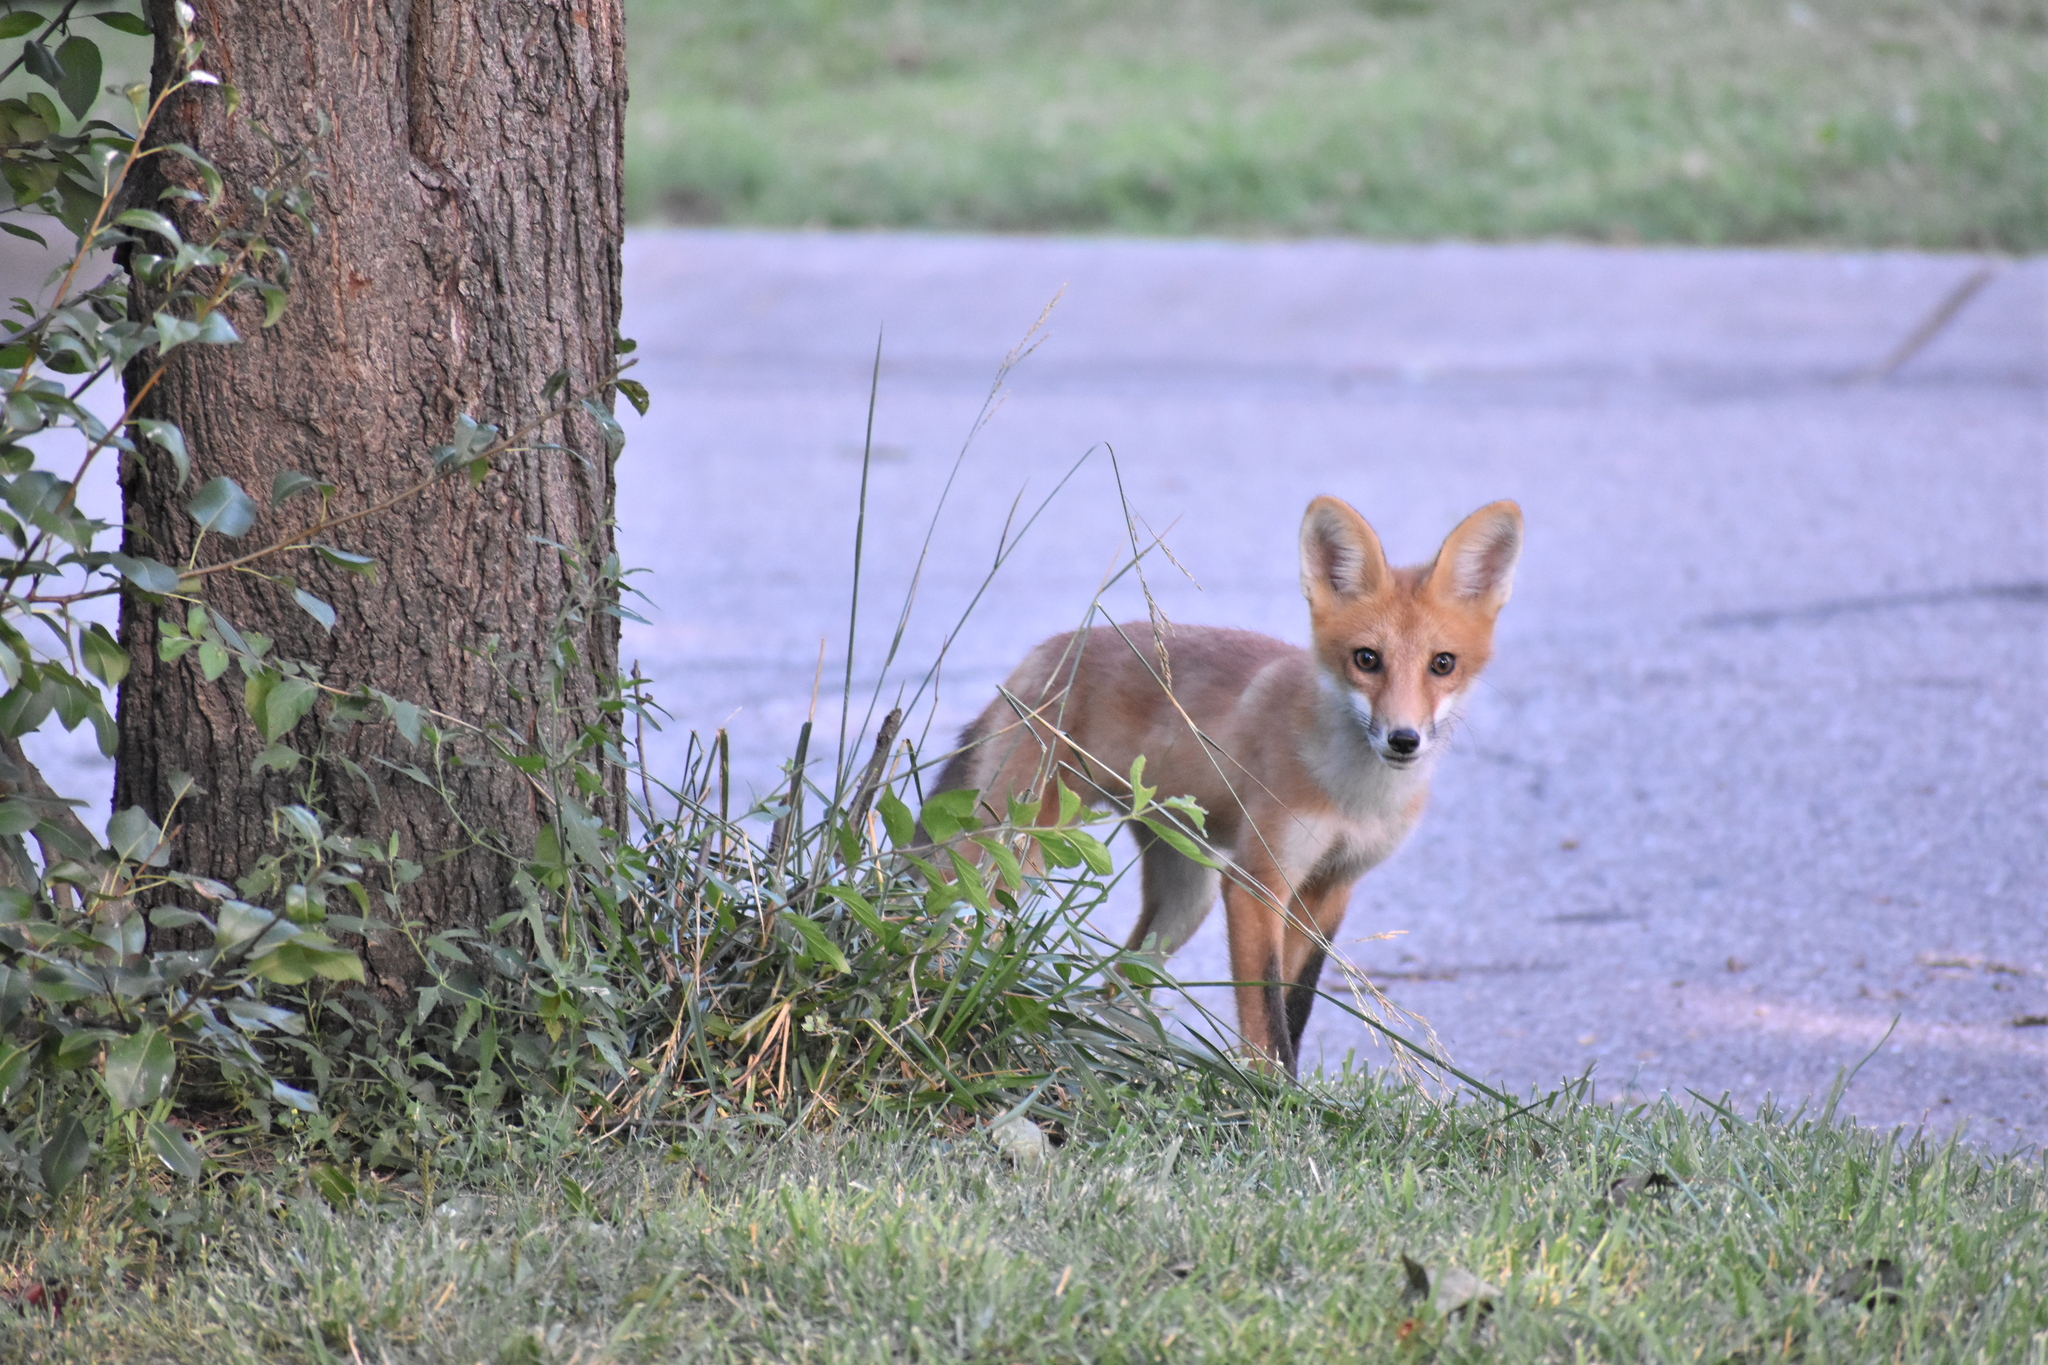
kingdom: Animalia
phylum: Chordata
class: Mammalia
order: Carnivora
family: Canidae
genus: Vulpes
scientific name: Vulpes vulpes
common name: Red fox
